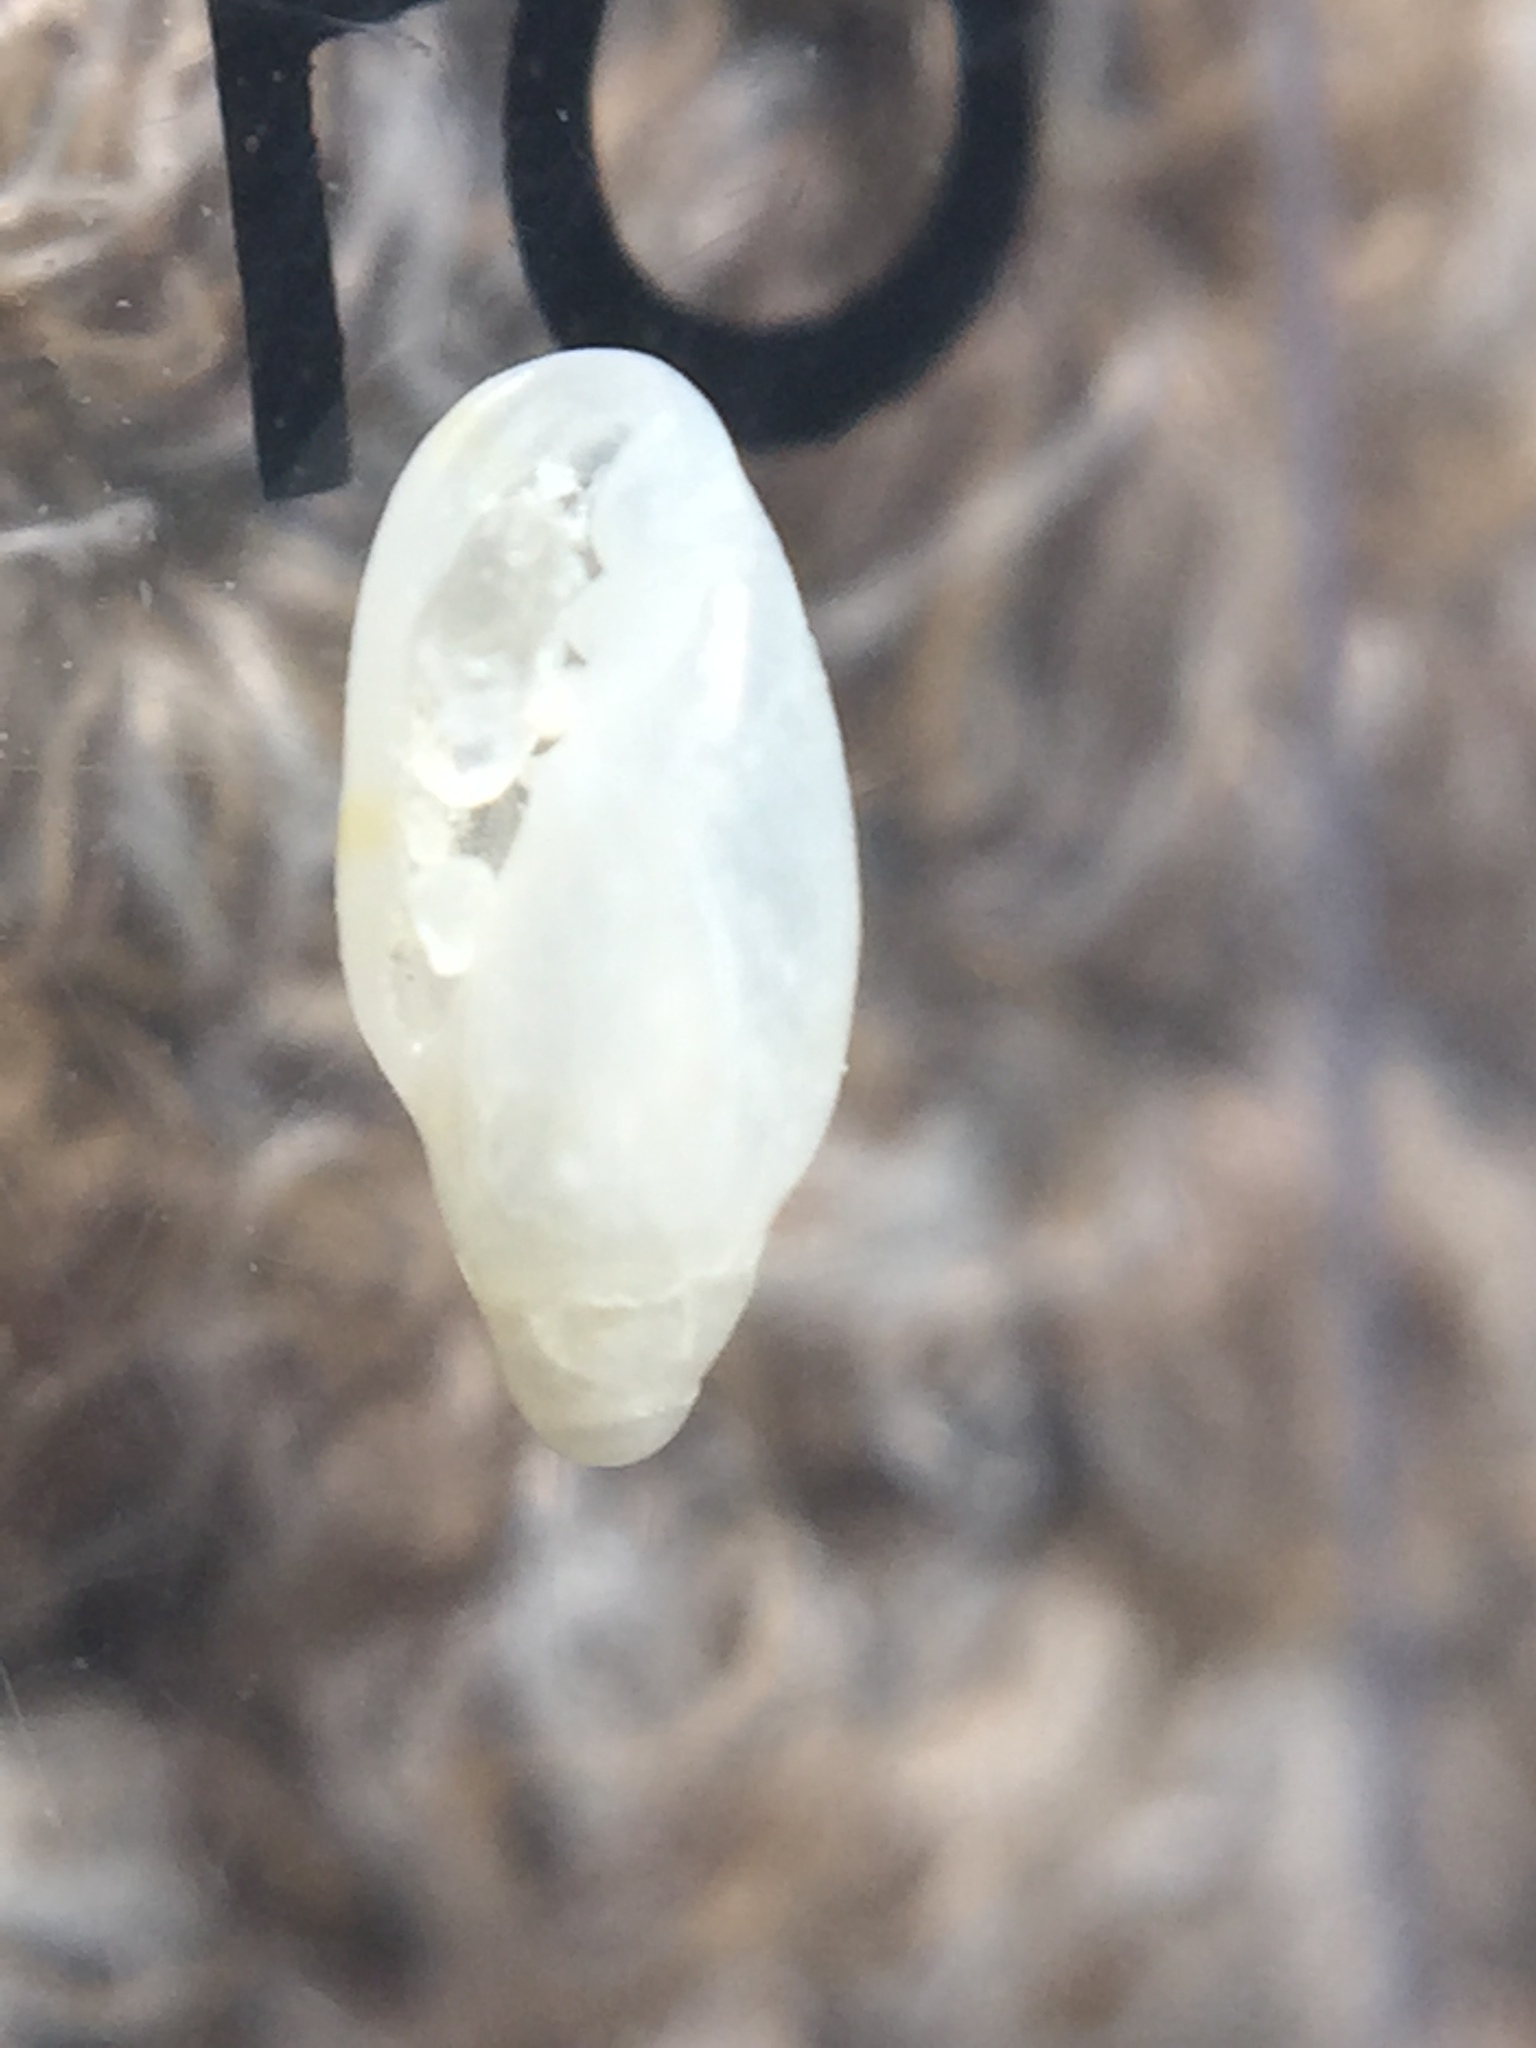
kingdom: Animalia
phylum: Mollusca
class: Gastropoda
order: Neogastropoda
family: Marginellidae
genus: Dentimargo
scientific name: Dentimargo cairoma
